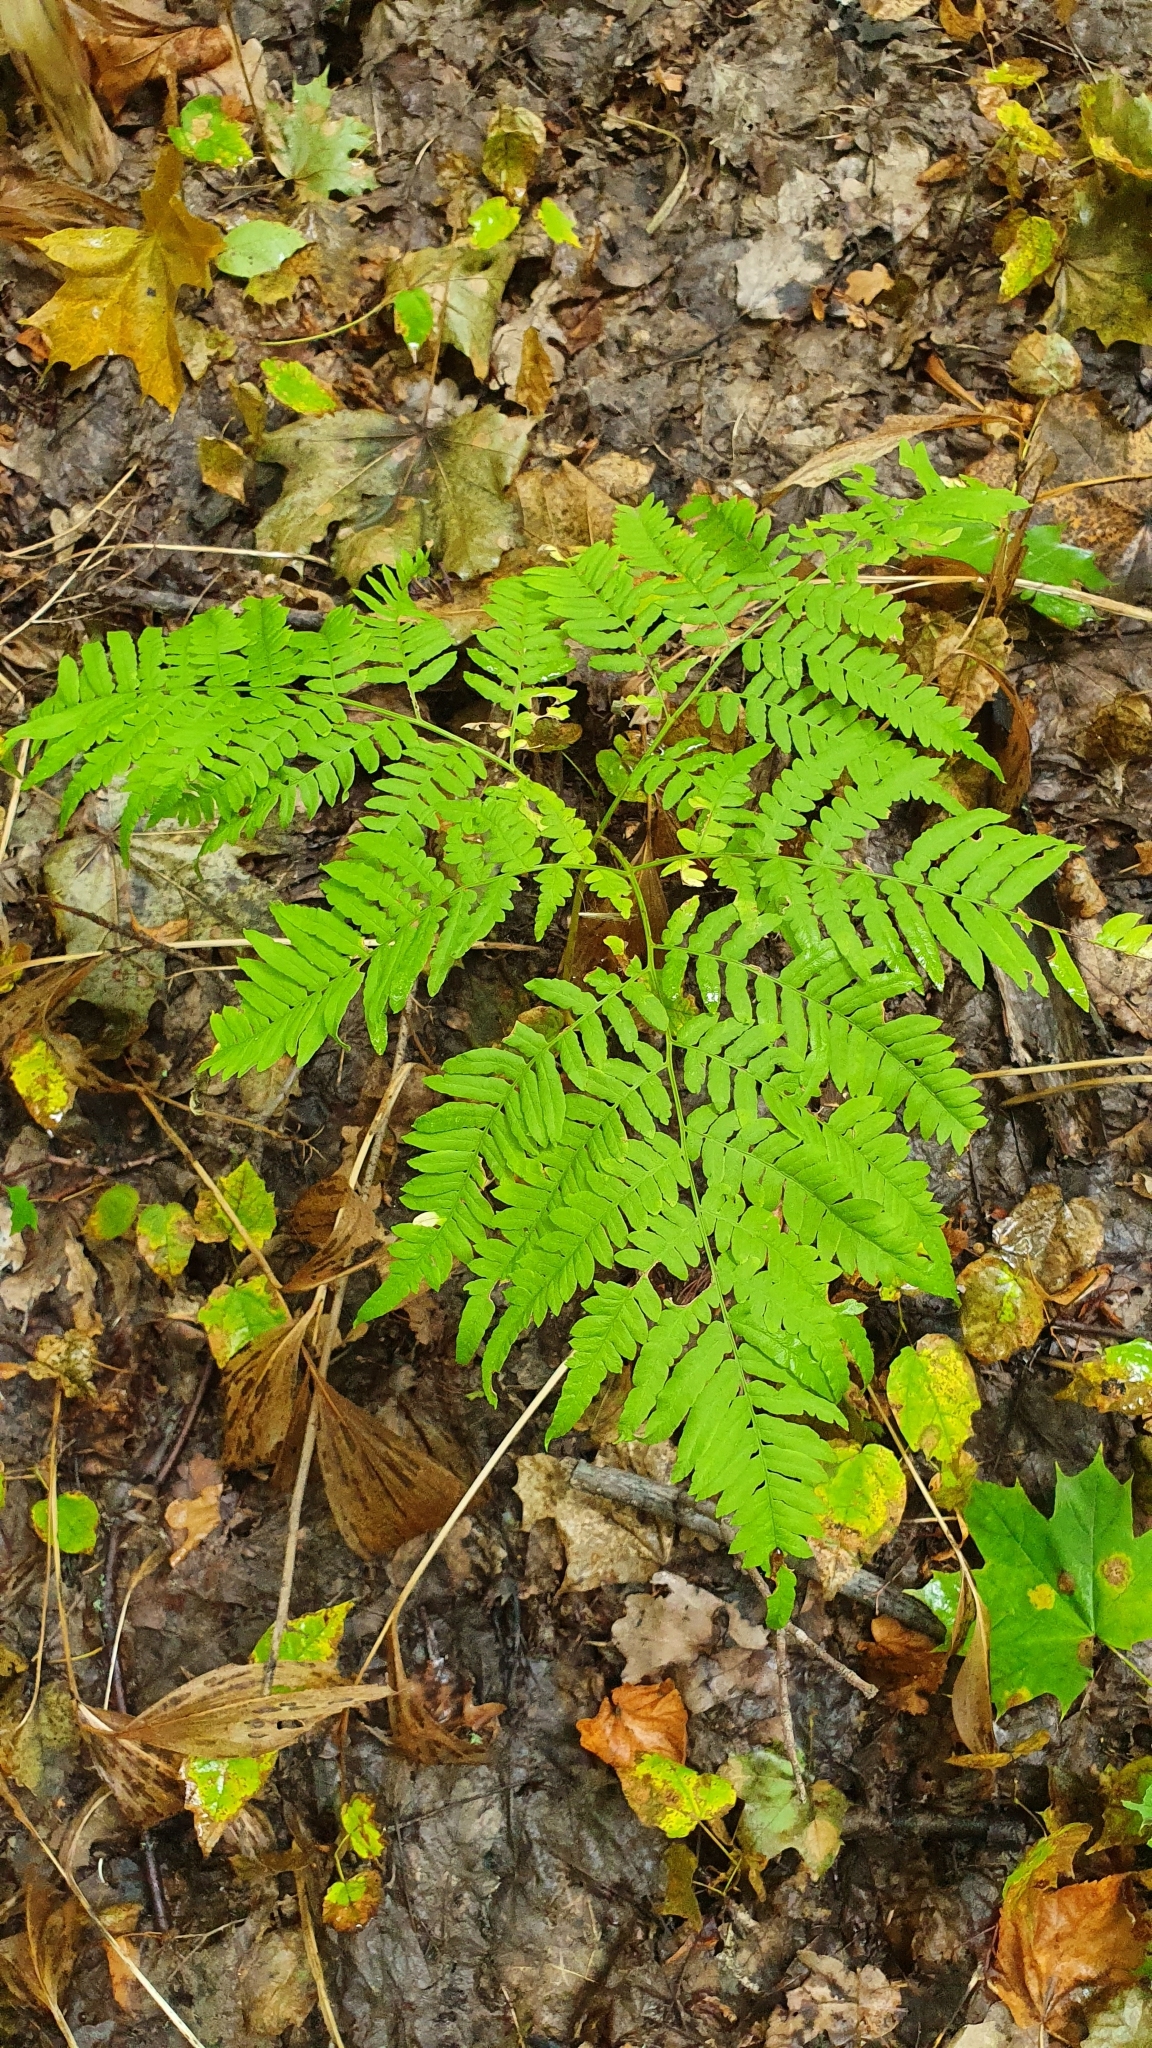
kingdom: Plantae
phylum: Tracheophyta
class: Polypodiopsida
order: Polypodiales
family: Dennstaedtiaceae
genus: Pteridium
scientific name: Pteridium aquilinum
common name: Bracken
